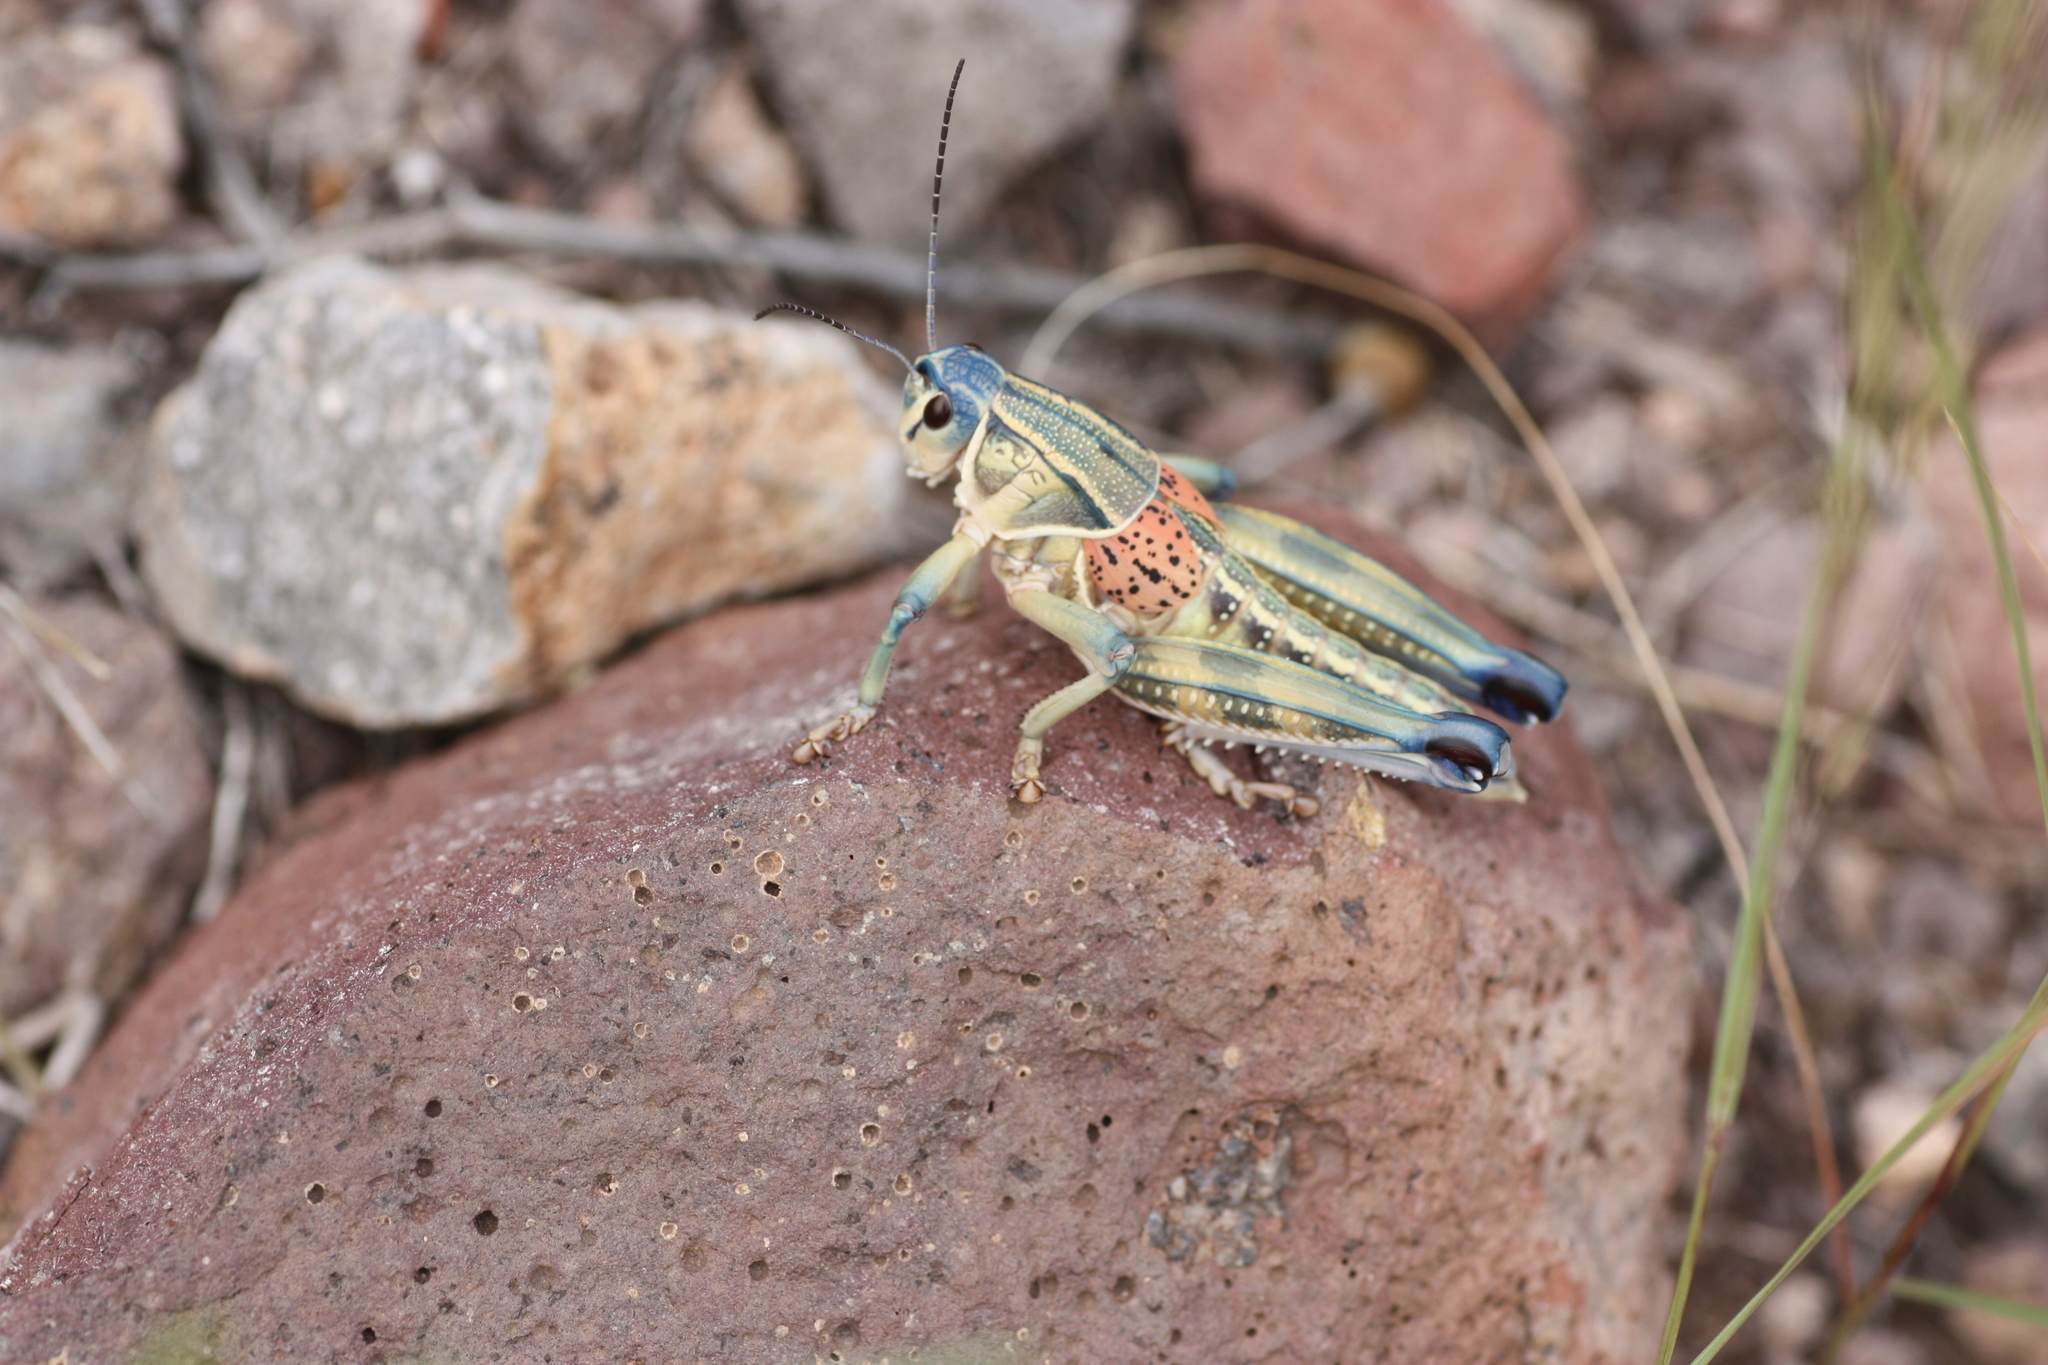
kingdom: Animalia
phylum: Arthropoda
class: Insecta
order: Orthoptera
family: Romaleidae
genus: Brachystola
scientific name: Brachystola magna
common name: Plains lubber grasshopper
